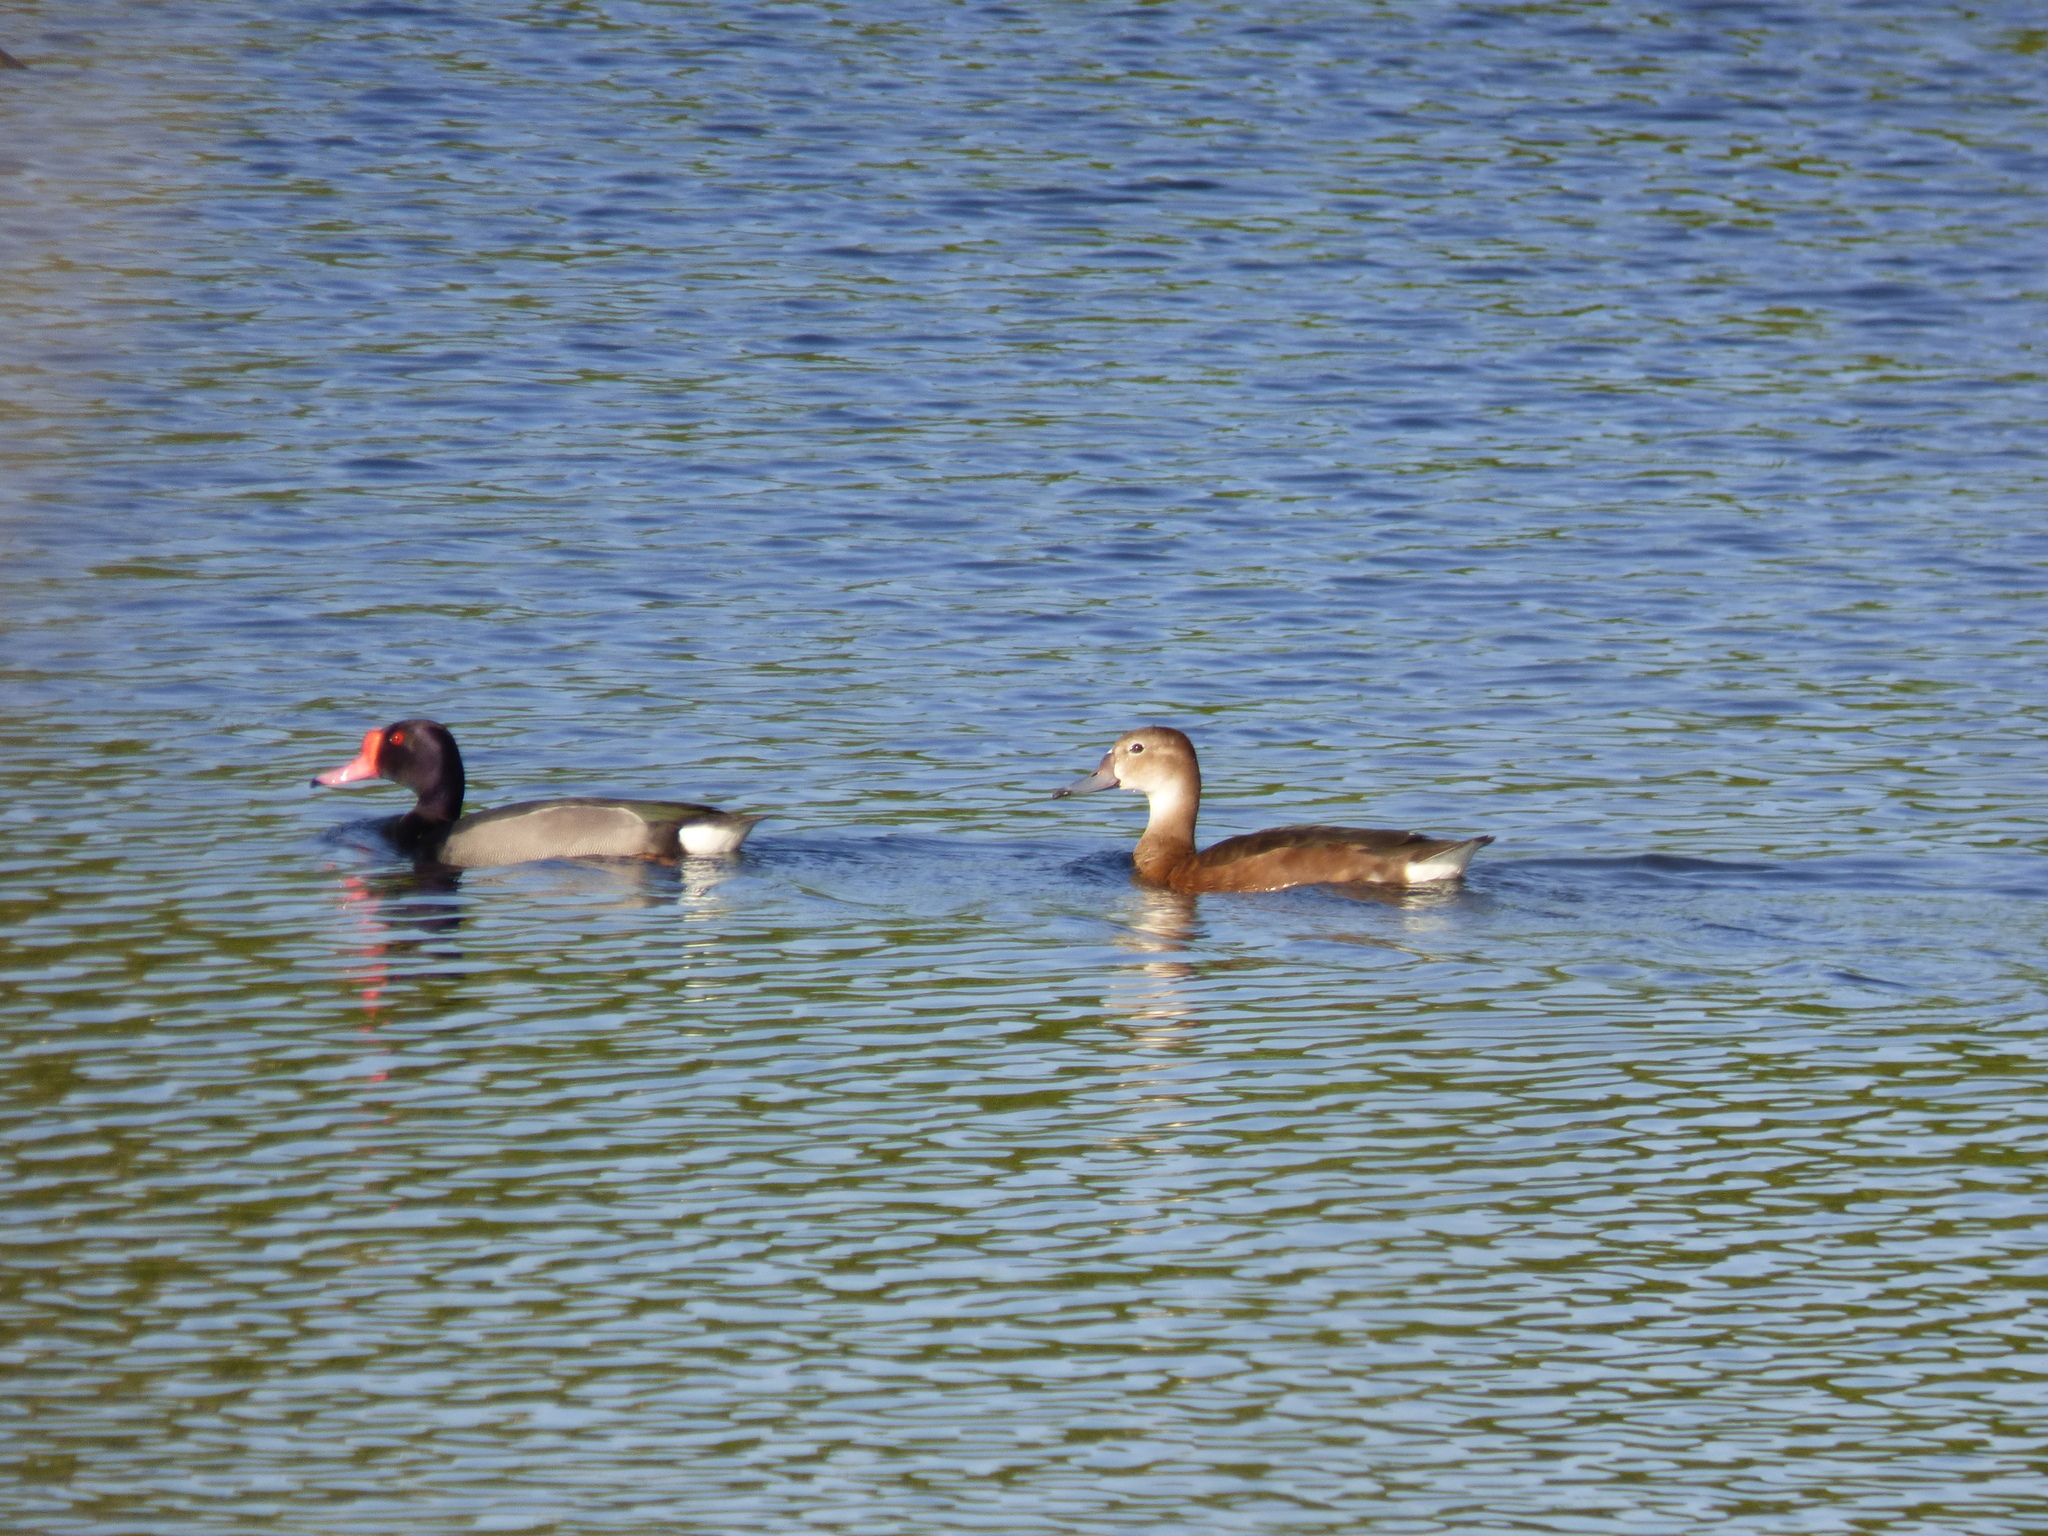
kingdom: Animalia
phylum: Chordata
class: Aves
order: Anseriformes
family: Anatidae
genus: Netta
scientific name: Netta peposaca
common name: Rosy-billed pochard
